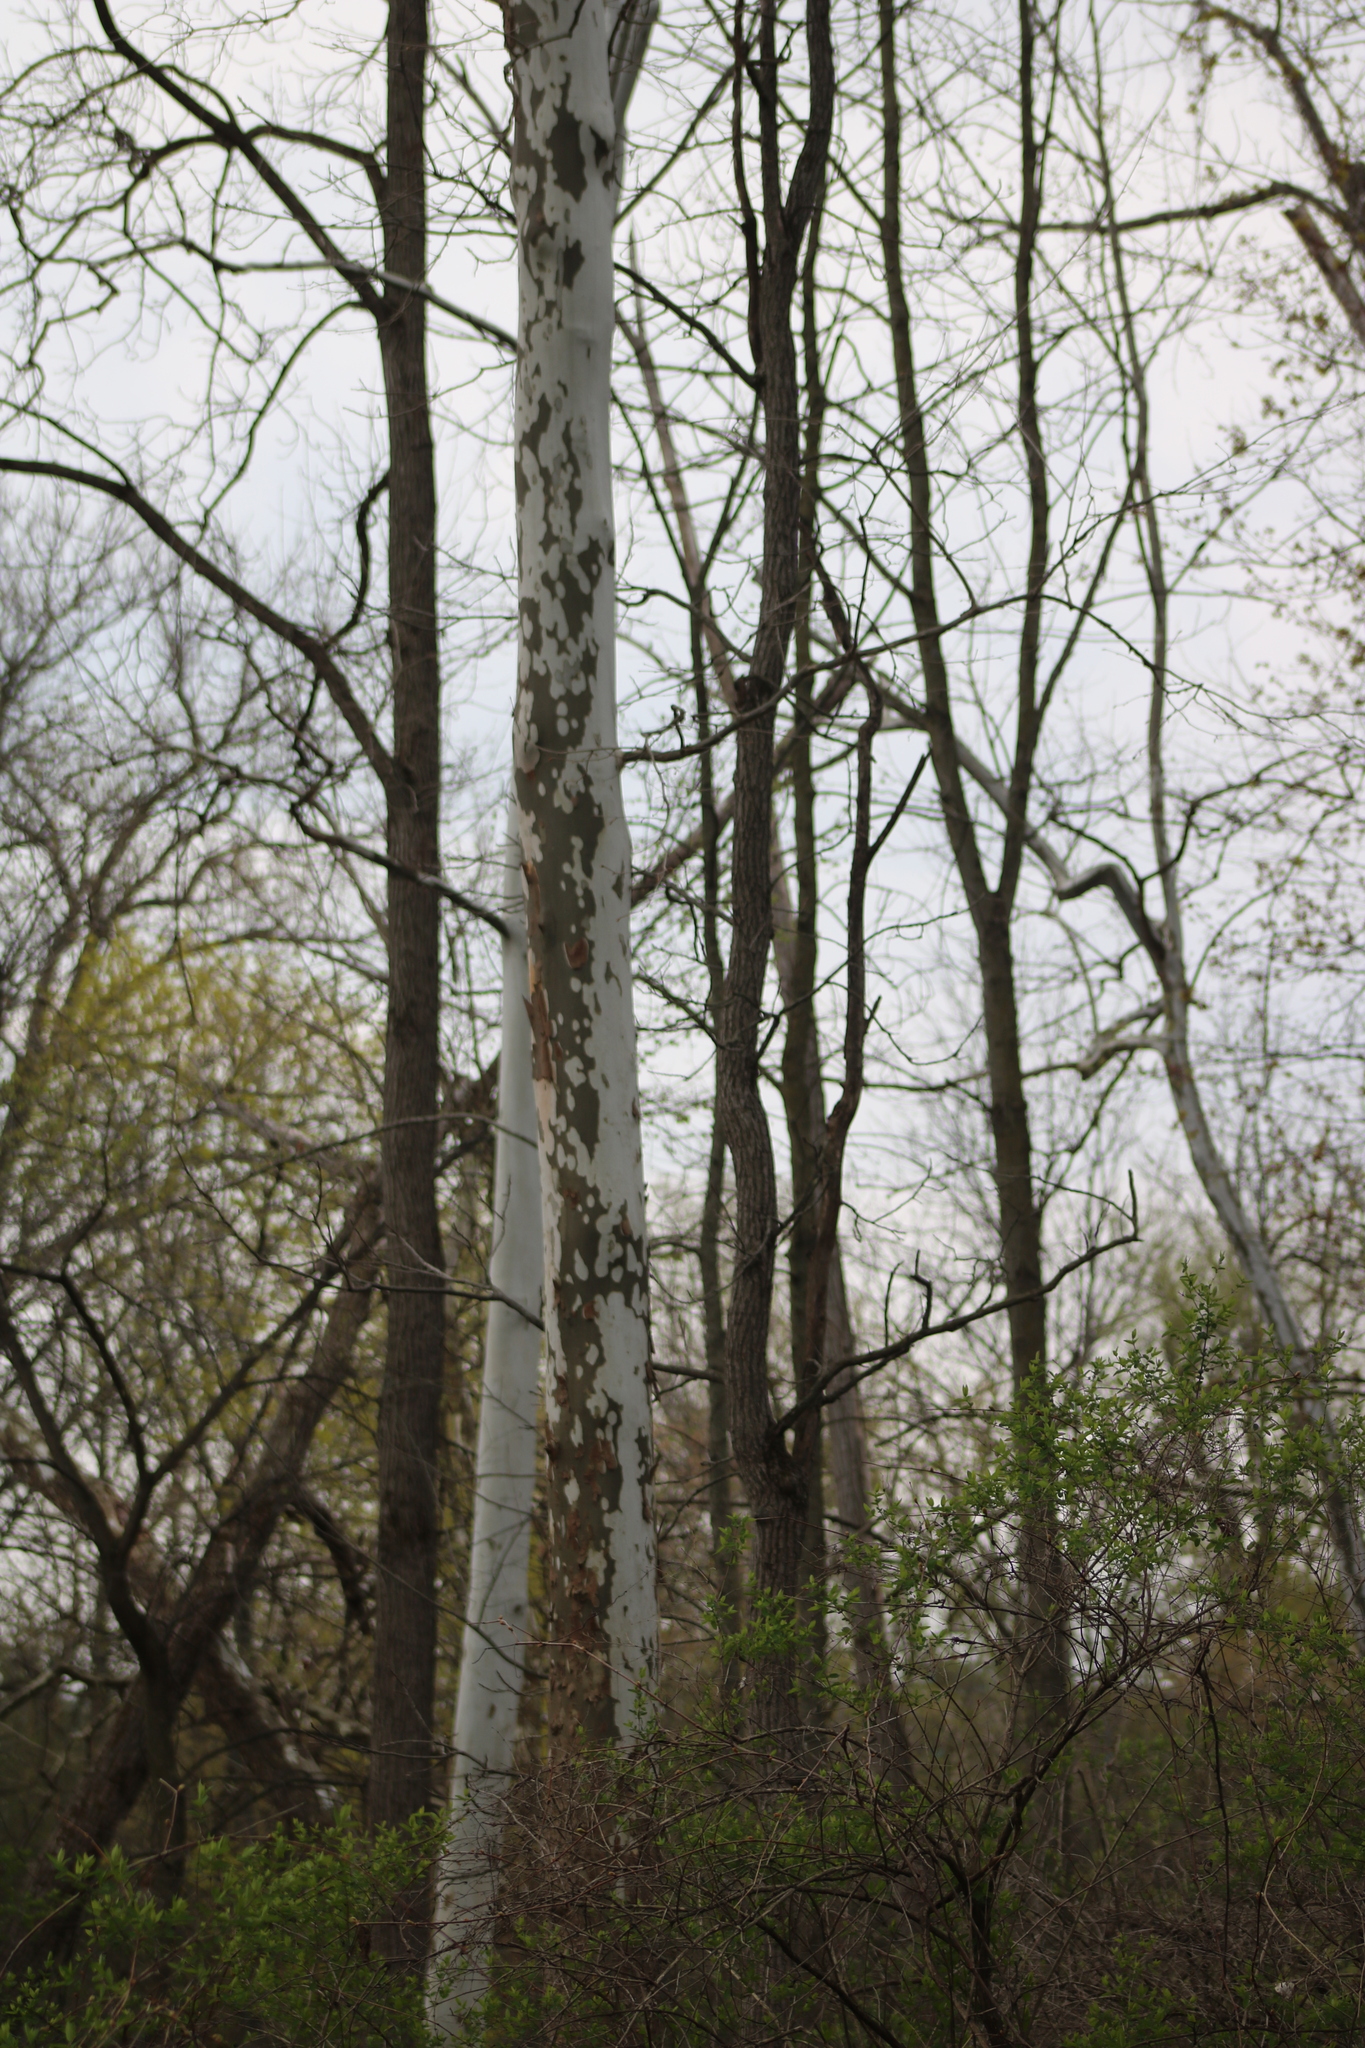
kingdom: Plantae
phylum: Tracheophyta
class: Magnoliopsida
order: Proteales
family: Platanaceae
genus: Platanus
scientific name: Platanus occidentalis
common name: American sycamore
